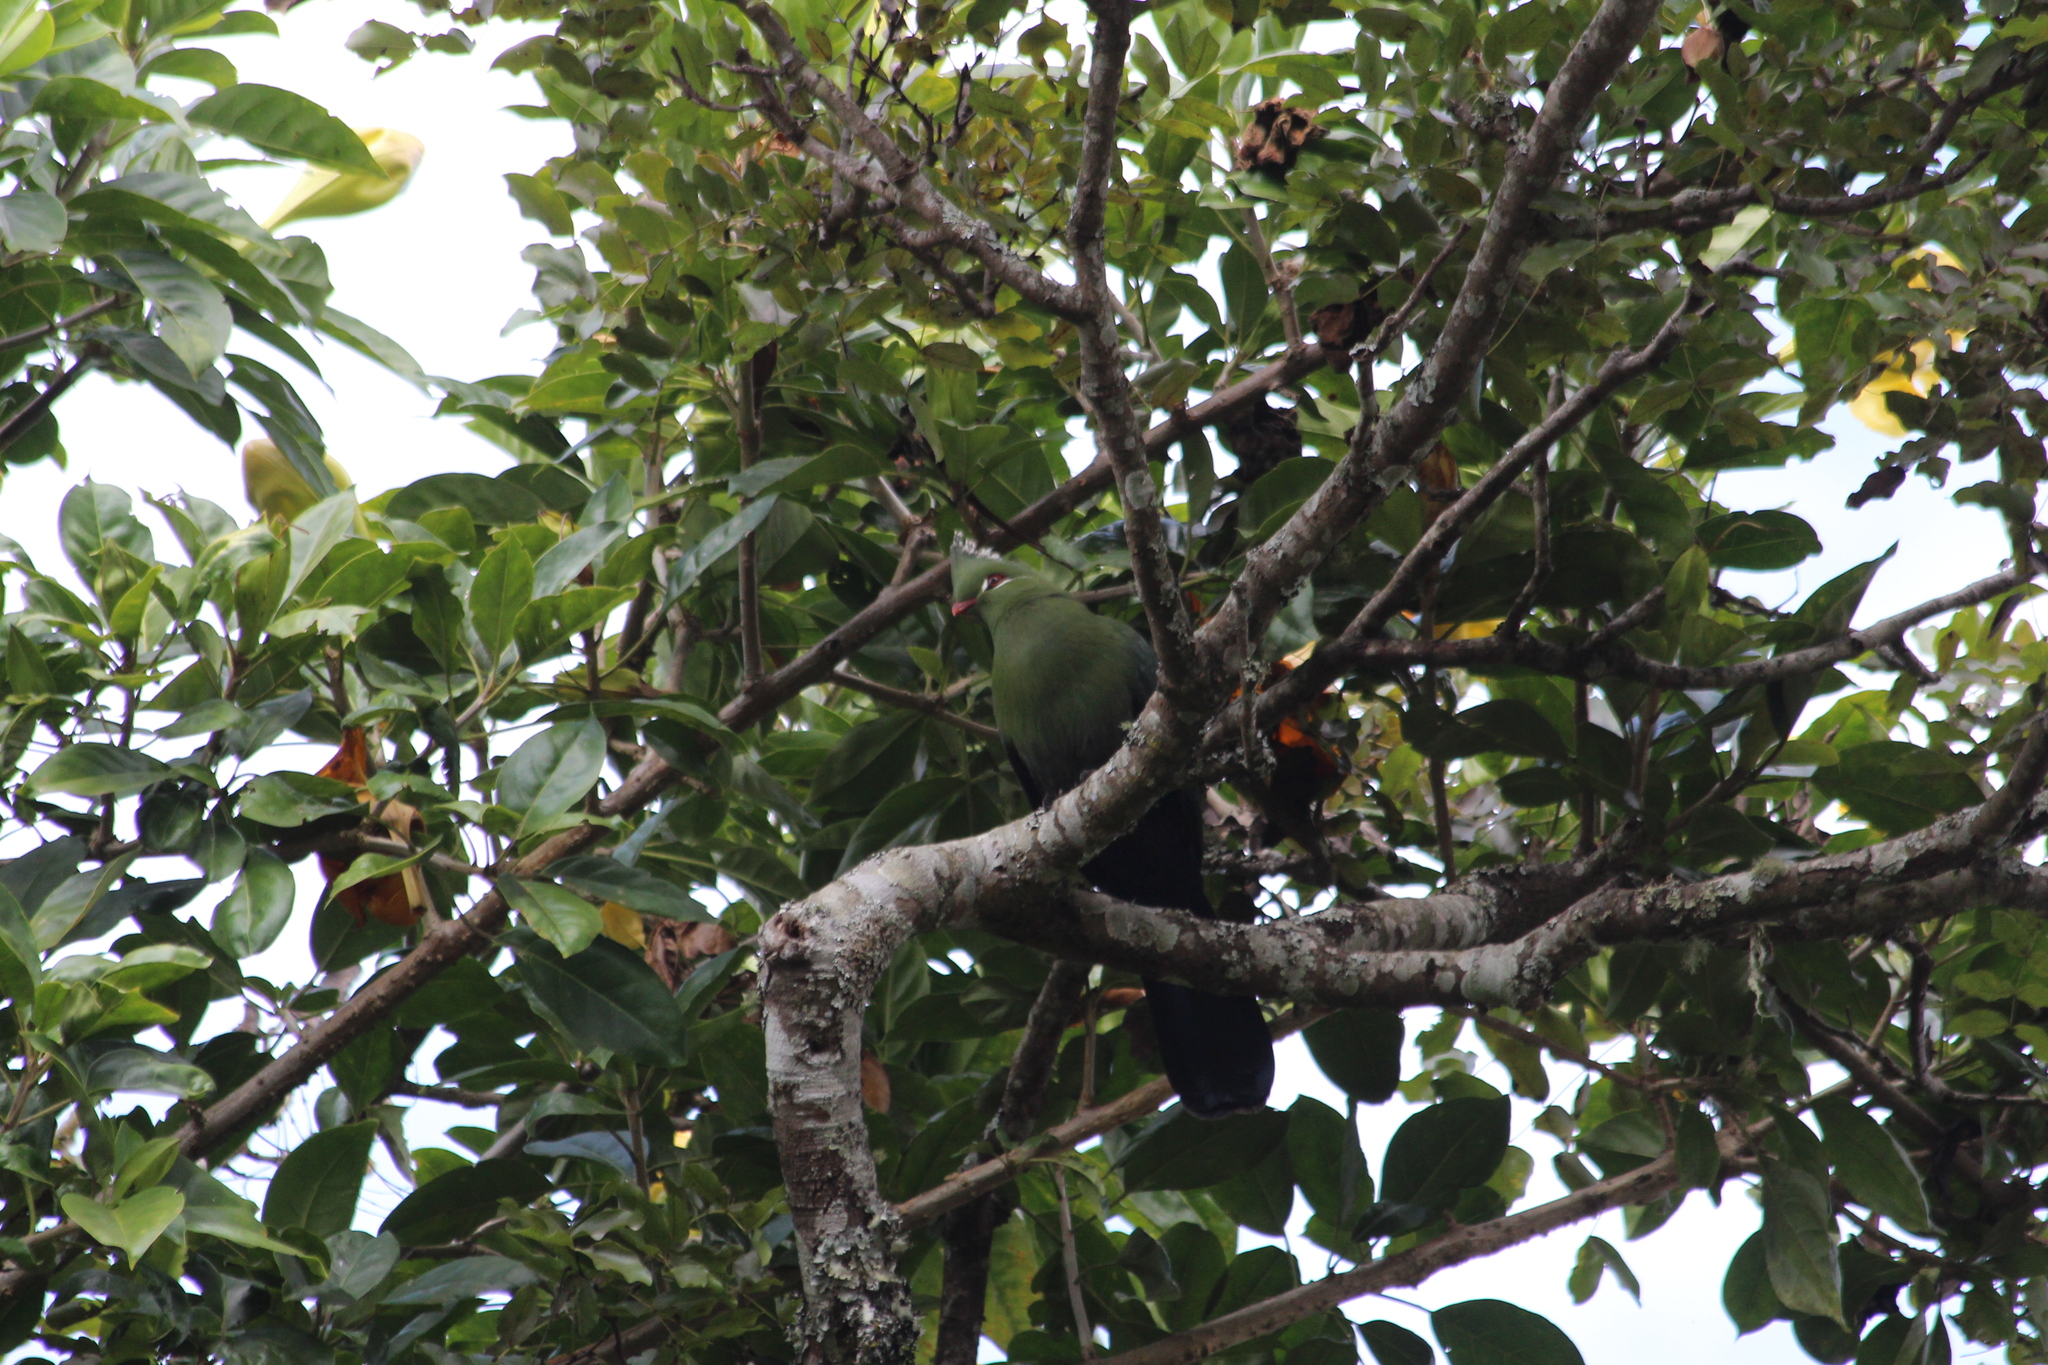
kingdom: Animalia
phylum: Chordata
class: Aves
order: Musophagiformes
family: Musophagidae
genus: Tauraco
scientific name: Tauraco livingstonii
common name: Livingstone's turaco
